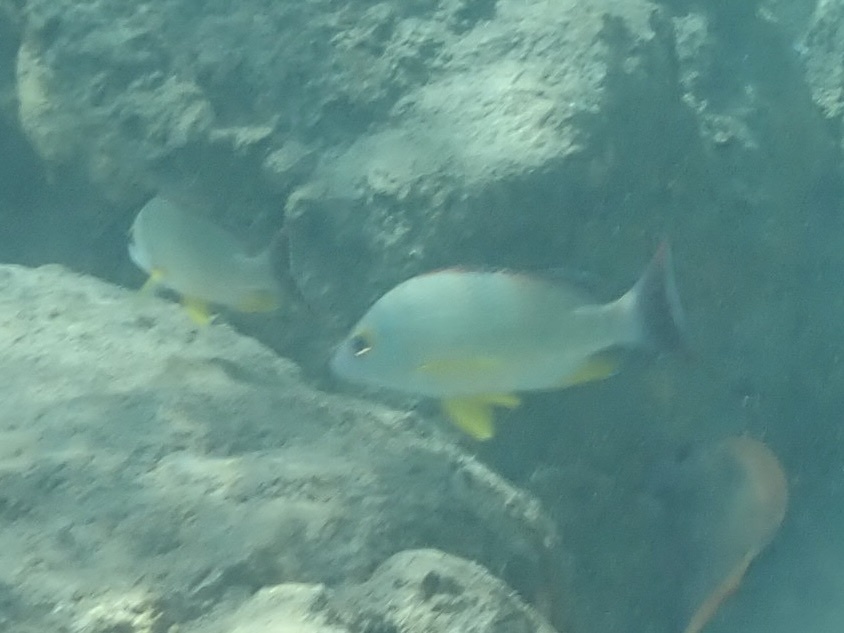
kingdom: Animalia
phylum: Chordata
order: Perciformes
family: Lutjanidae
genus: Lutjanus
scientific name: Lutjanus fulvus
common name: Blacktail snapper
